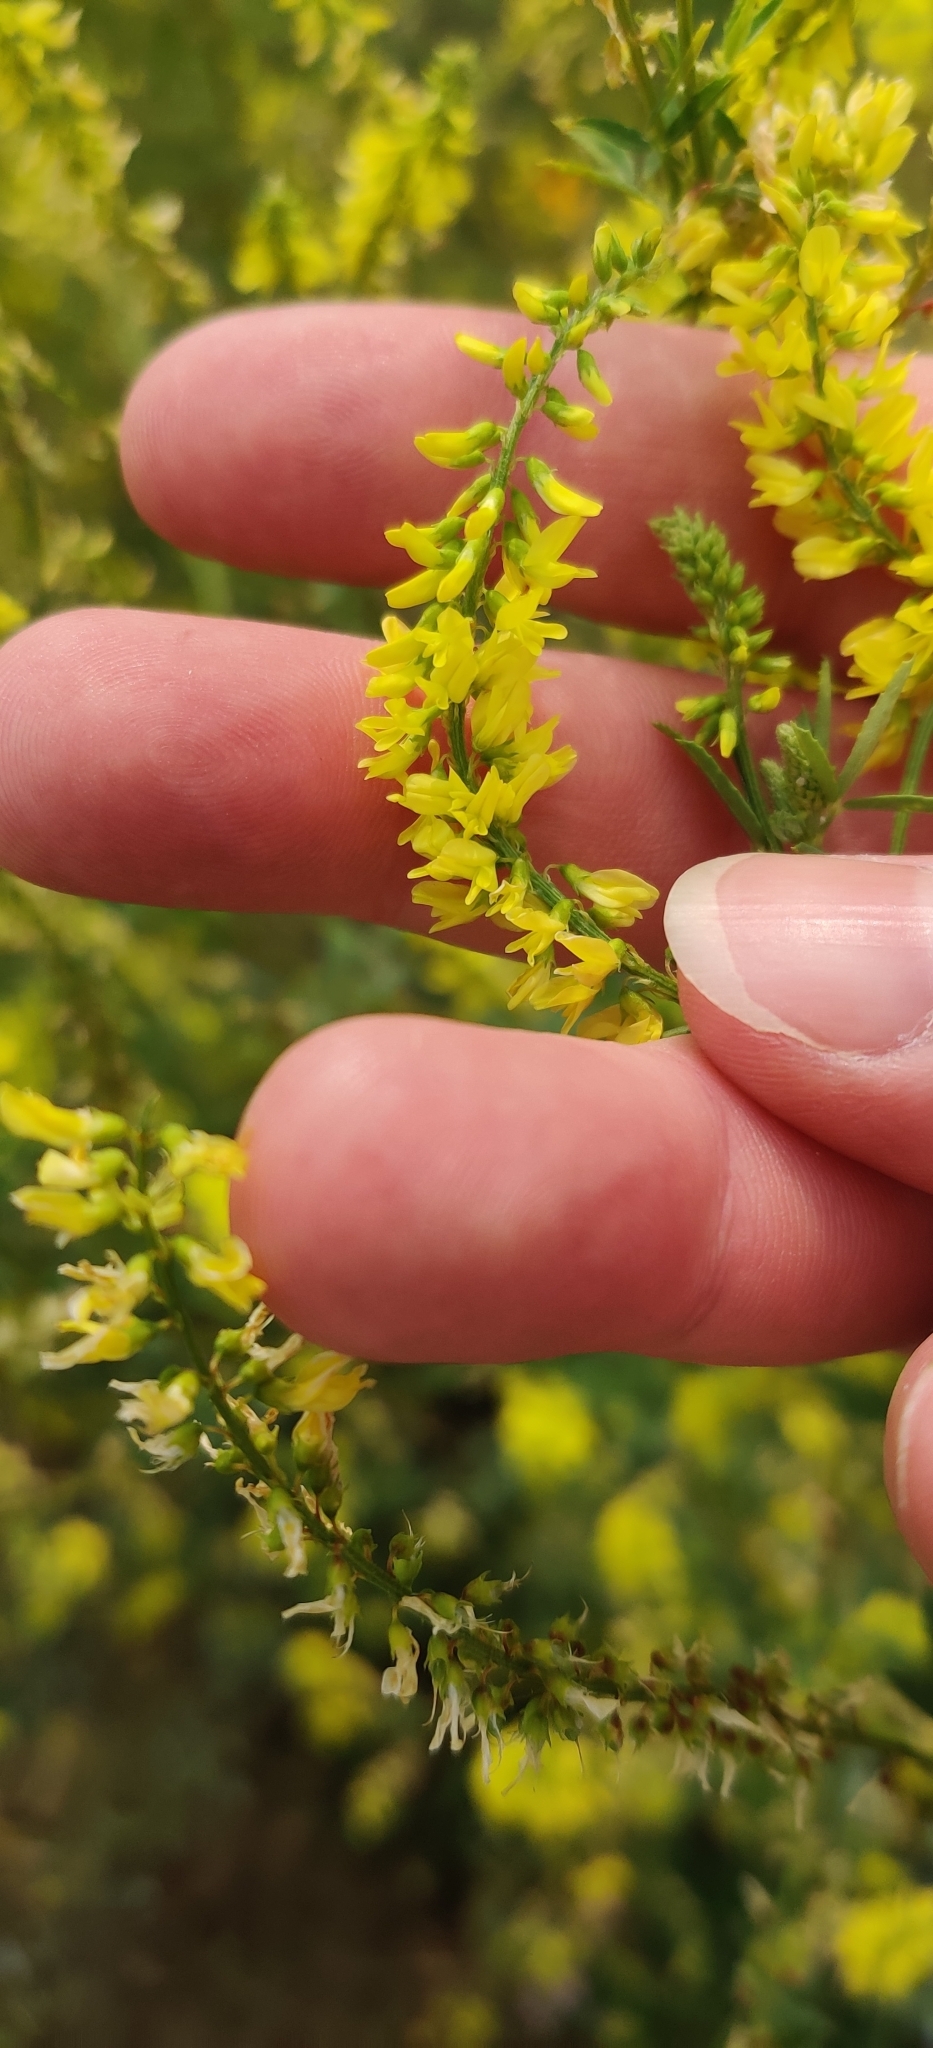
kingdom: Plantae
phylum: Tracheophyta
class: Magnoliopsida
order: Fabales
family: Fabaceae
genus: Melilotus
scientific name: Melilotus officinalis
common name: Sweetclover
